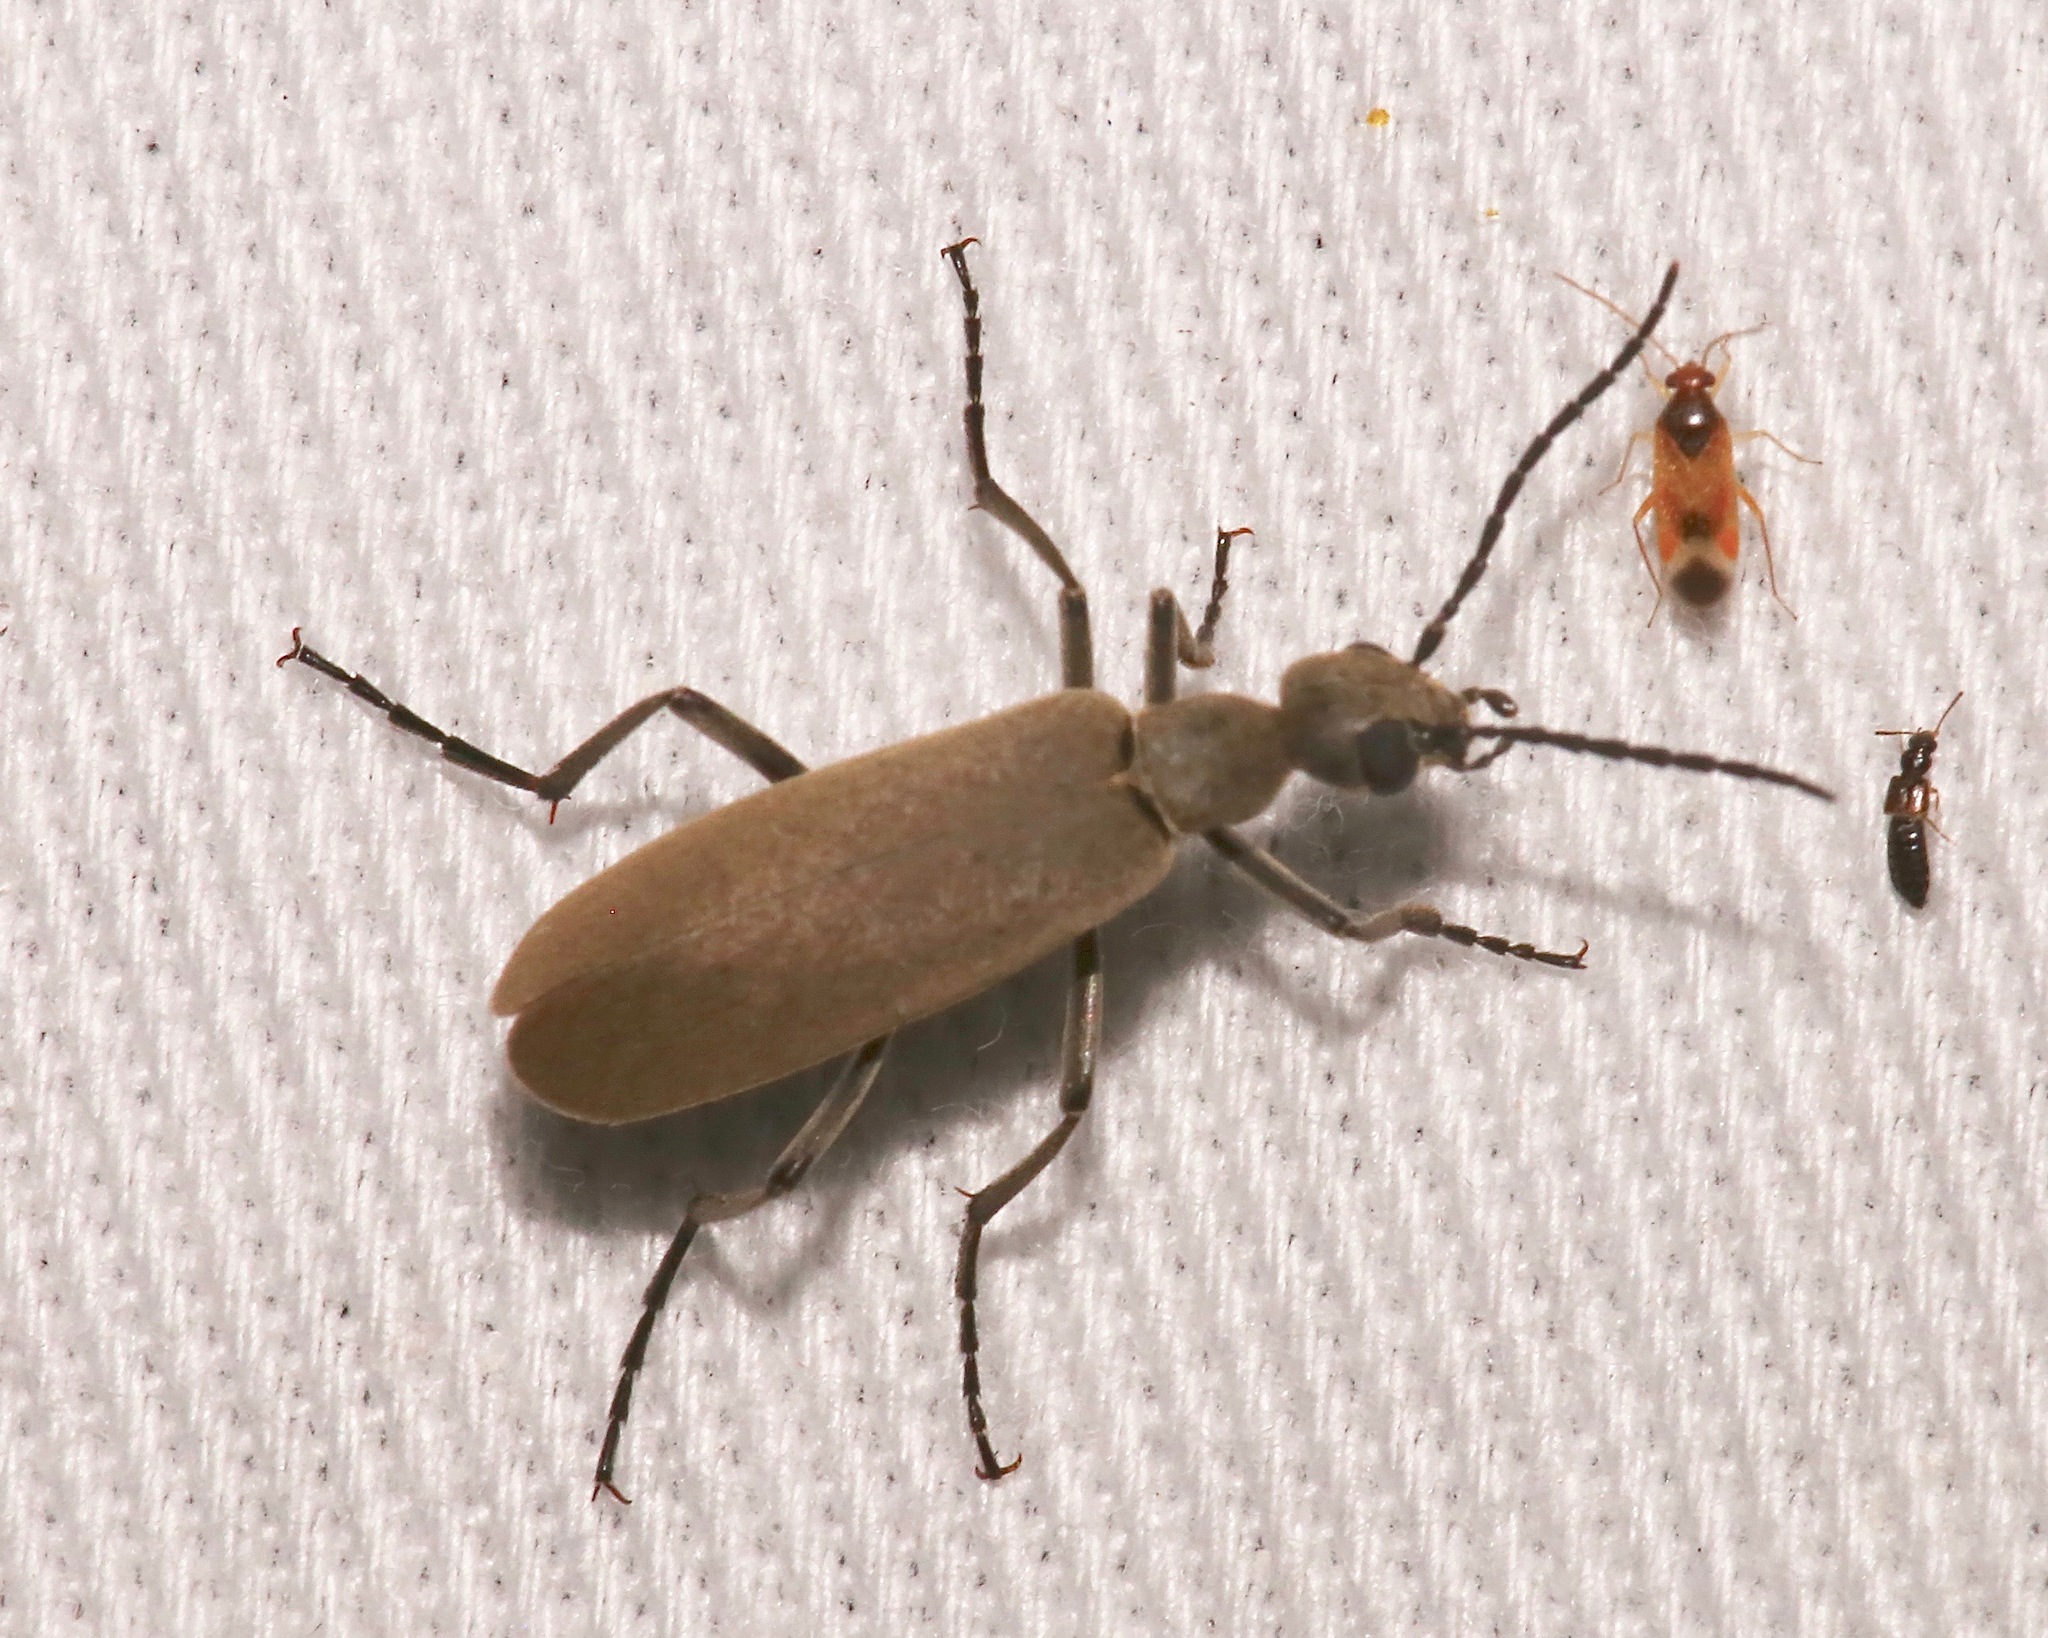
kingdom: Animalia
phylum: Arthropoda
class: Insecta
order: Coleoptera
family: Meloidae
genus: Epicauta
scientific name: Epicauta brunnea
